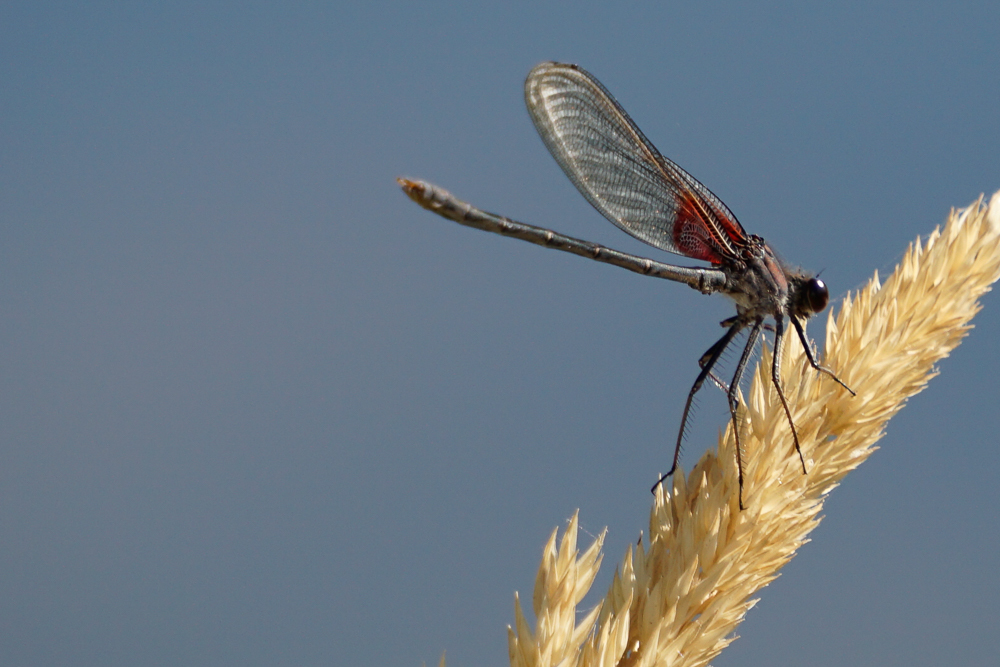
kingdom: Animalia
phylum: Arthropoda
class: Insecta
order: Odonata
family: Calopterygidae
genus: Hetaerina
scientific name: Hetaerina americana
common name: American rubyspot
